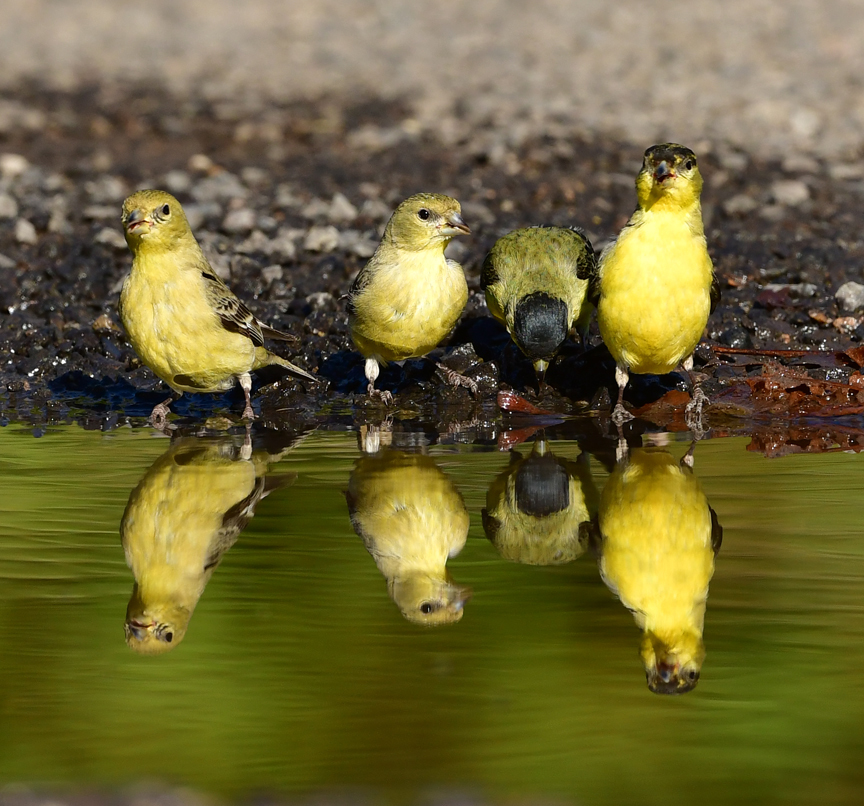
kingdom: Animalia
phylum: Chordata
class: Aves
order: Passeriformes
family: Fringillidae
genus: Spinus
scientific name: Spinus psaltria
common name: Lesser goldfinch
